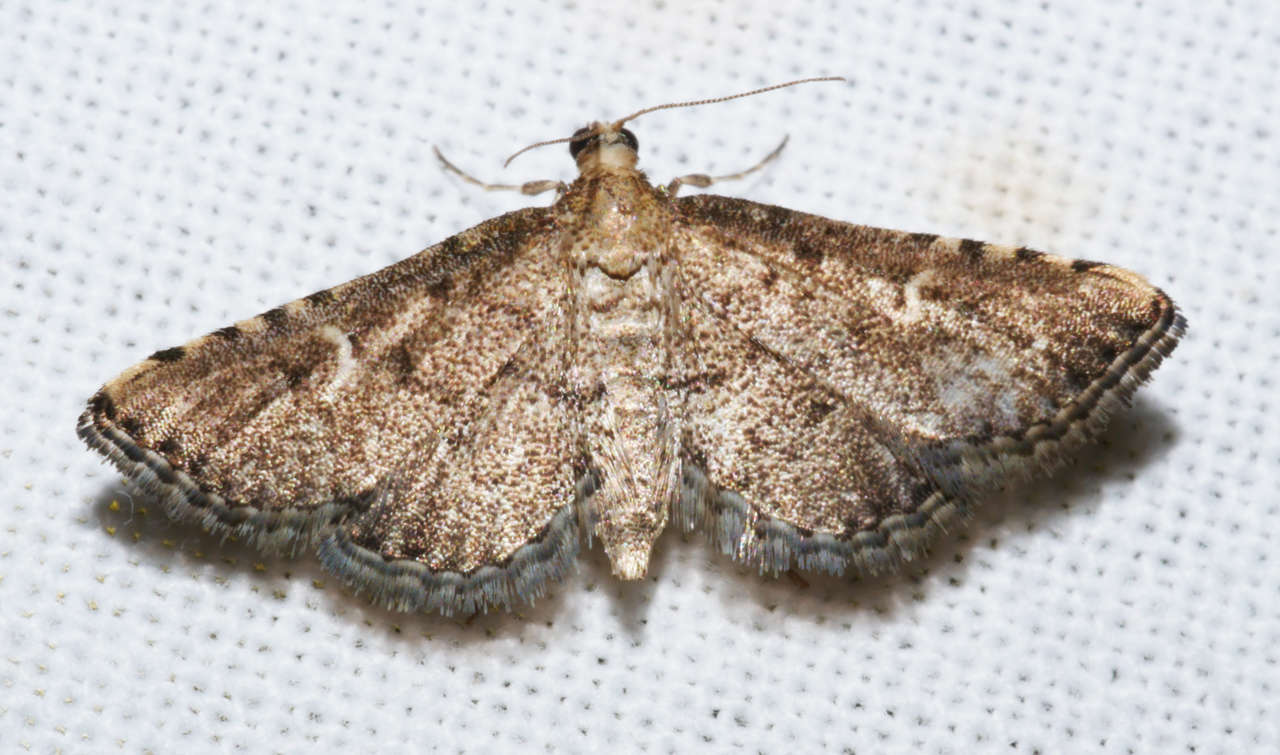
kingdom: Animalia
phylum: Arthropoda
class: Insecta
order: Lepidoptera
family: Crambidae
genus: Metasia
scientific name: Metasia capnochroa
